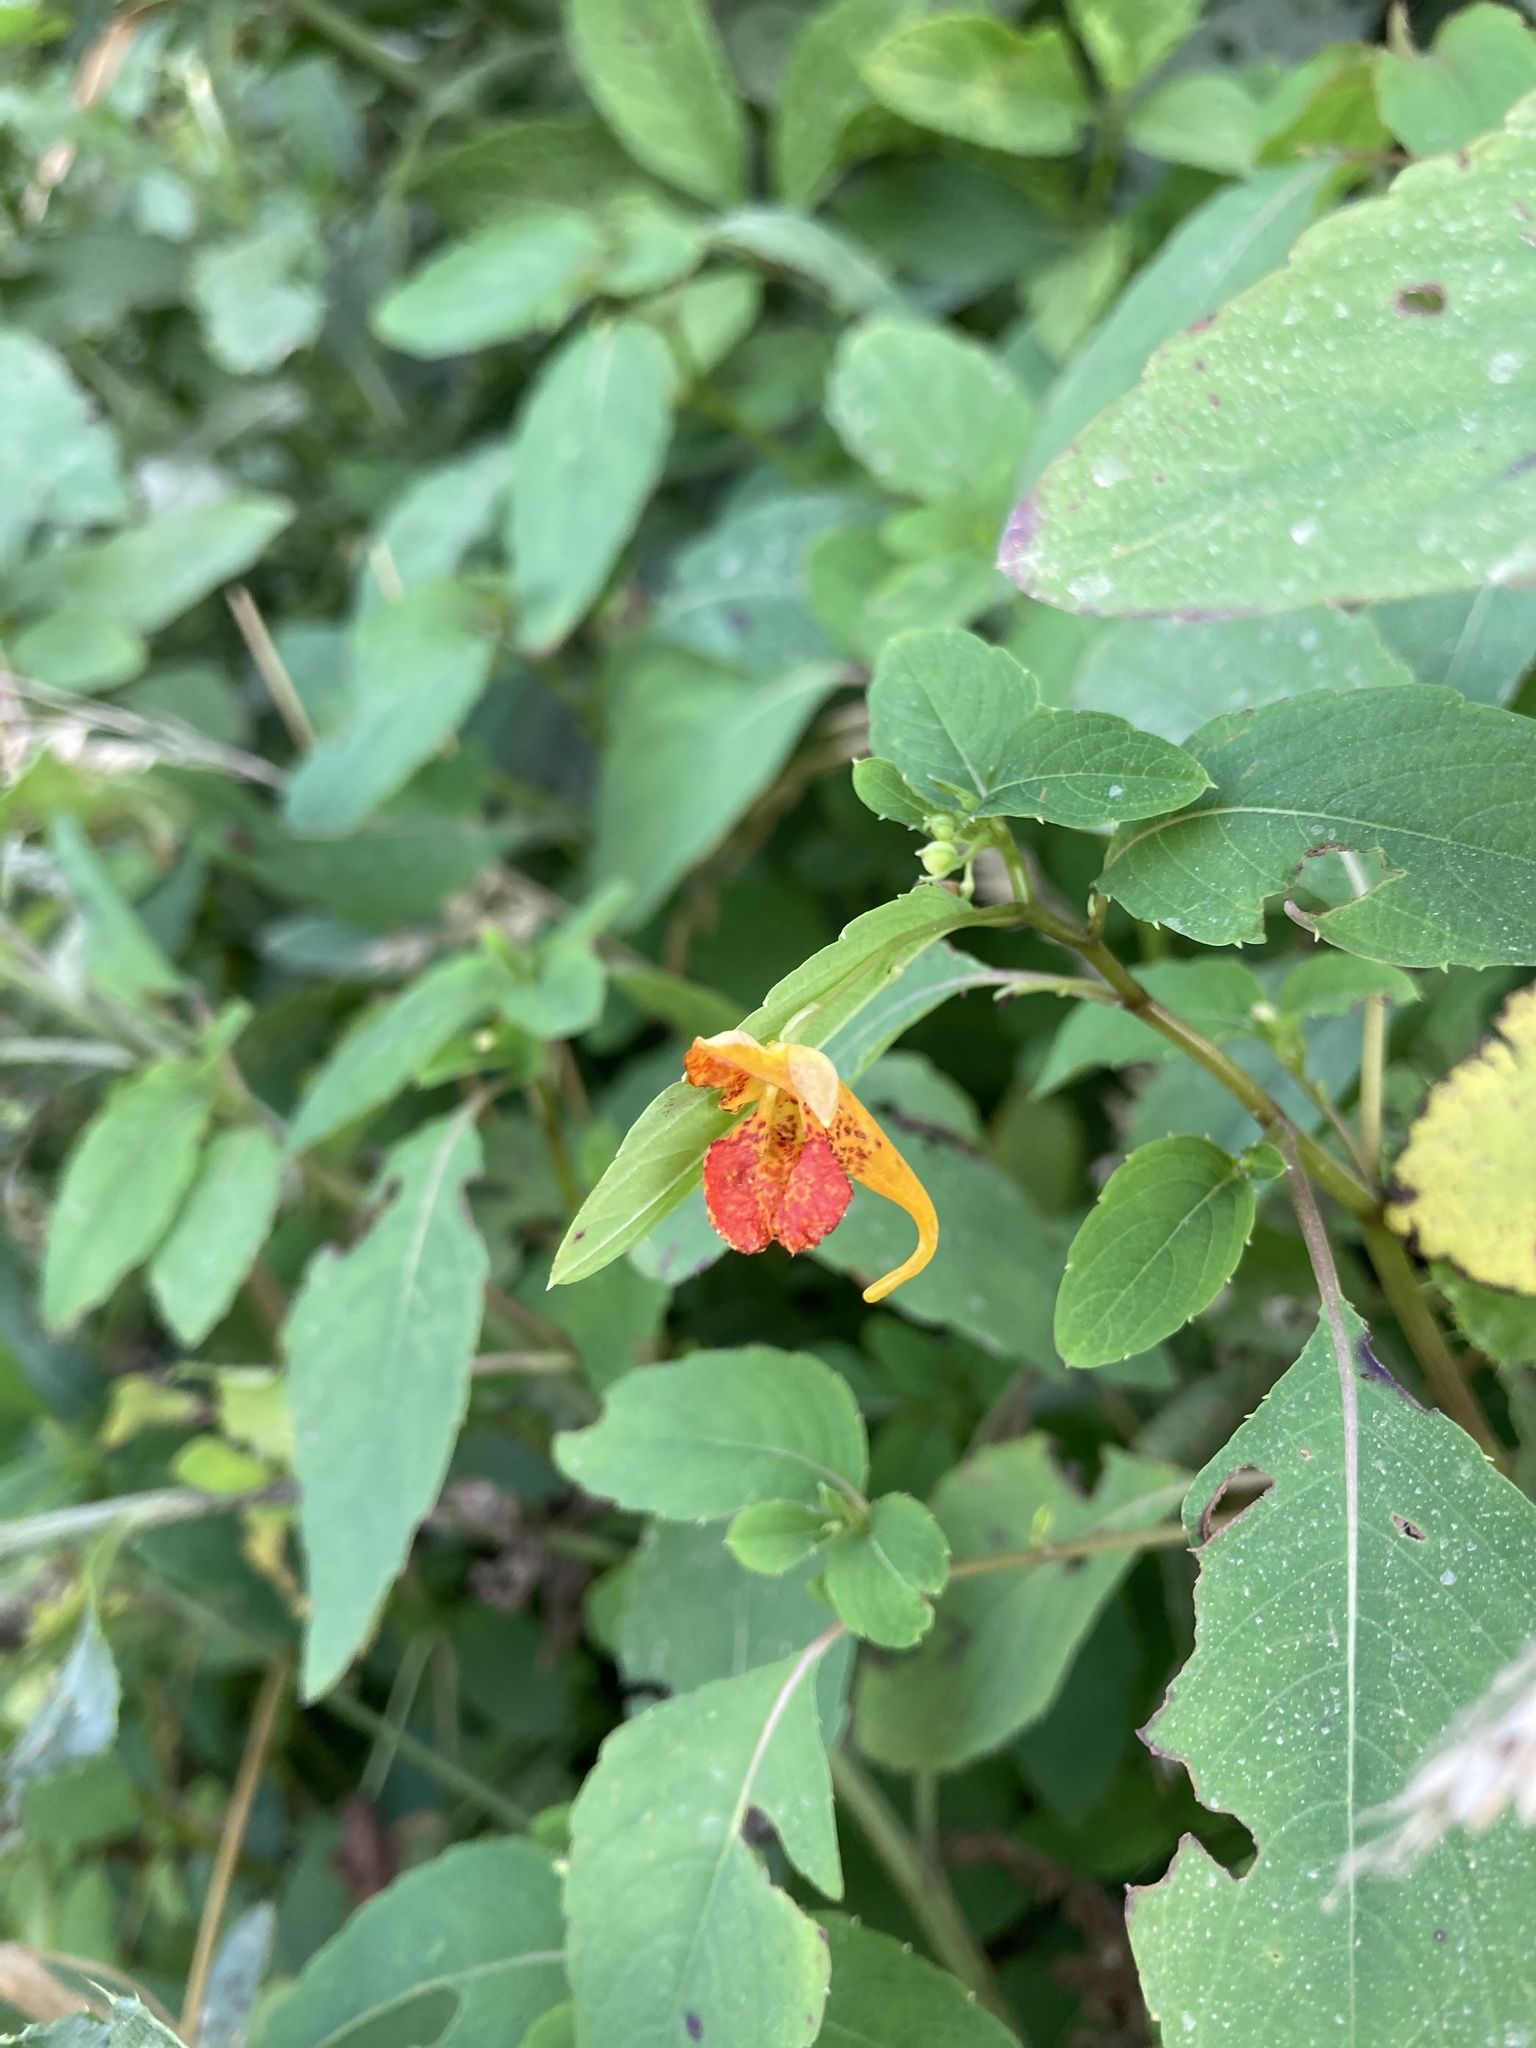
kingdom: Plantae
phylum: Tracheophyta
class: Magnoliopsida
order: Ericales
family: Balsaminaceae
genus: Impatiens
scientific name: Impatiens capensis
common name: Orange balsam
